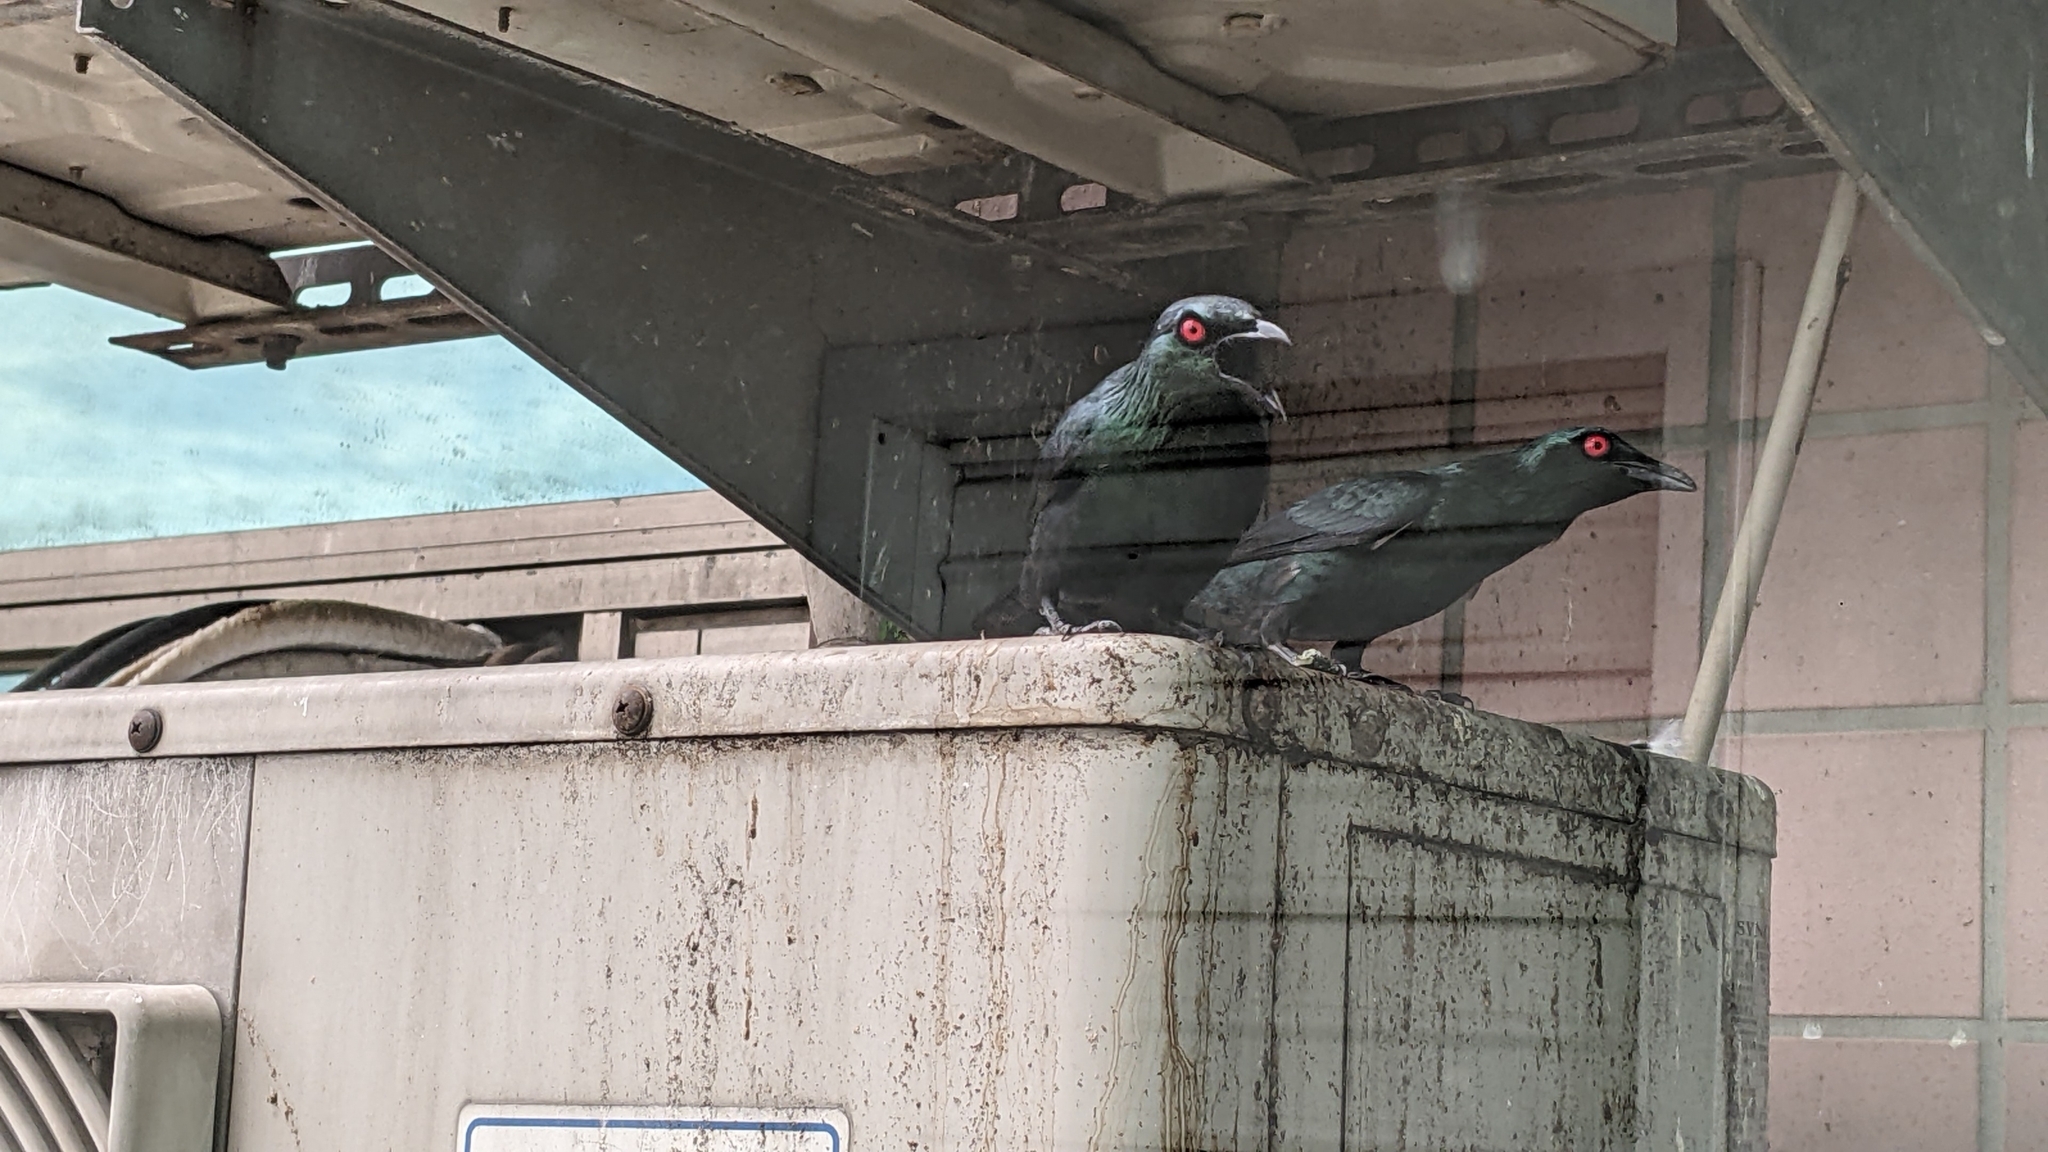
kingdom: Animalia
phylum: Chordata
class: Aves
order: Passeriformes
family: Sturnidae
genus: Aplonis
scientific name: Aplonis panayensis
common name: Asian glossy starling
